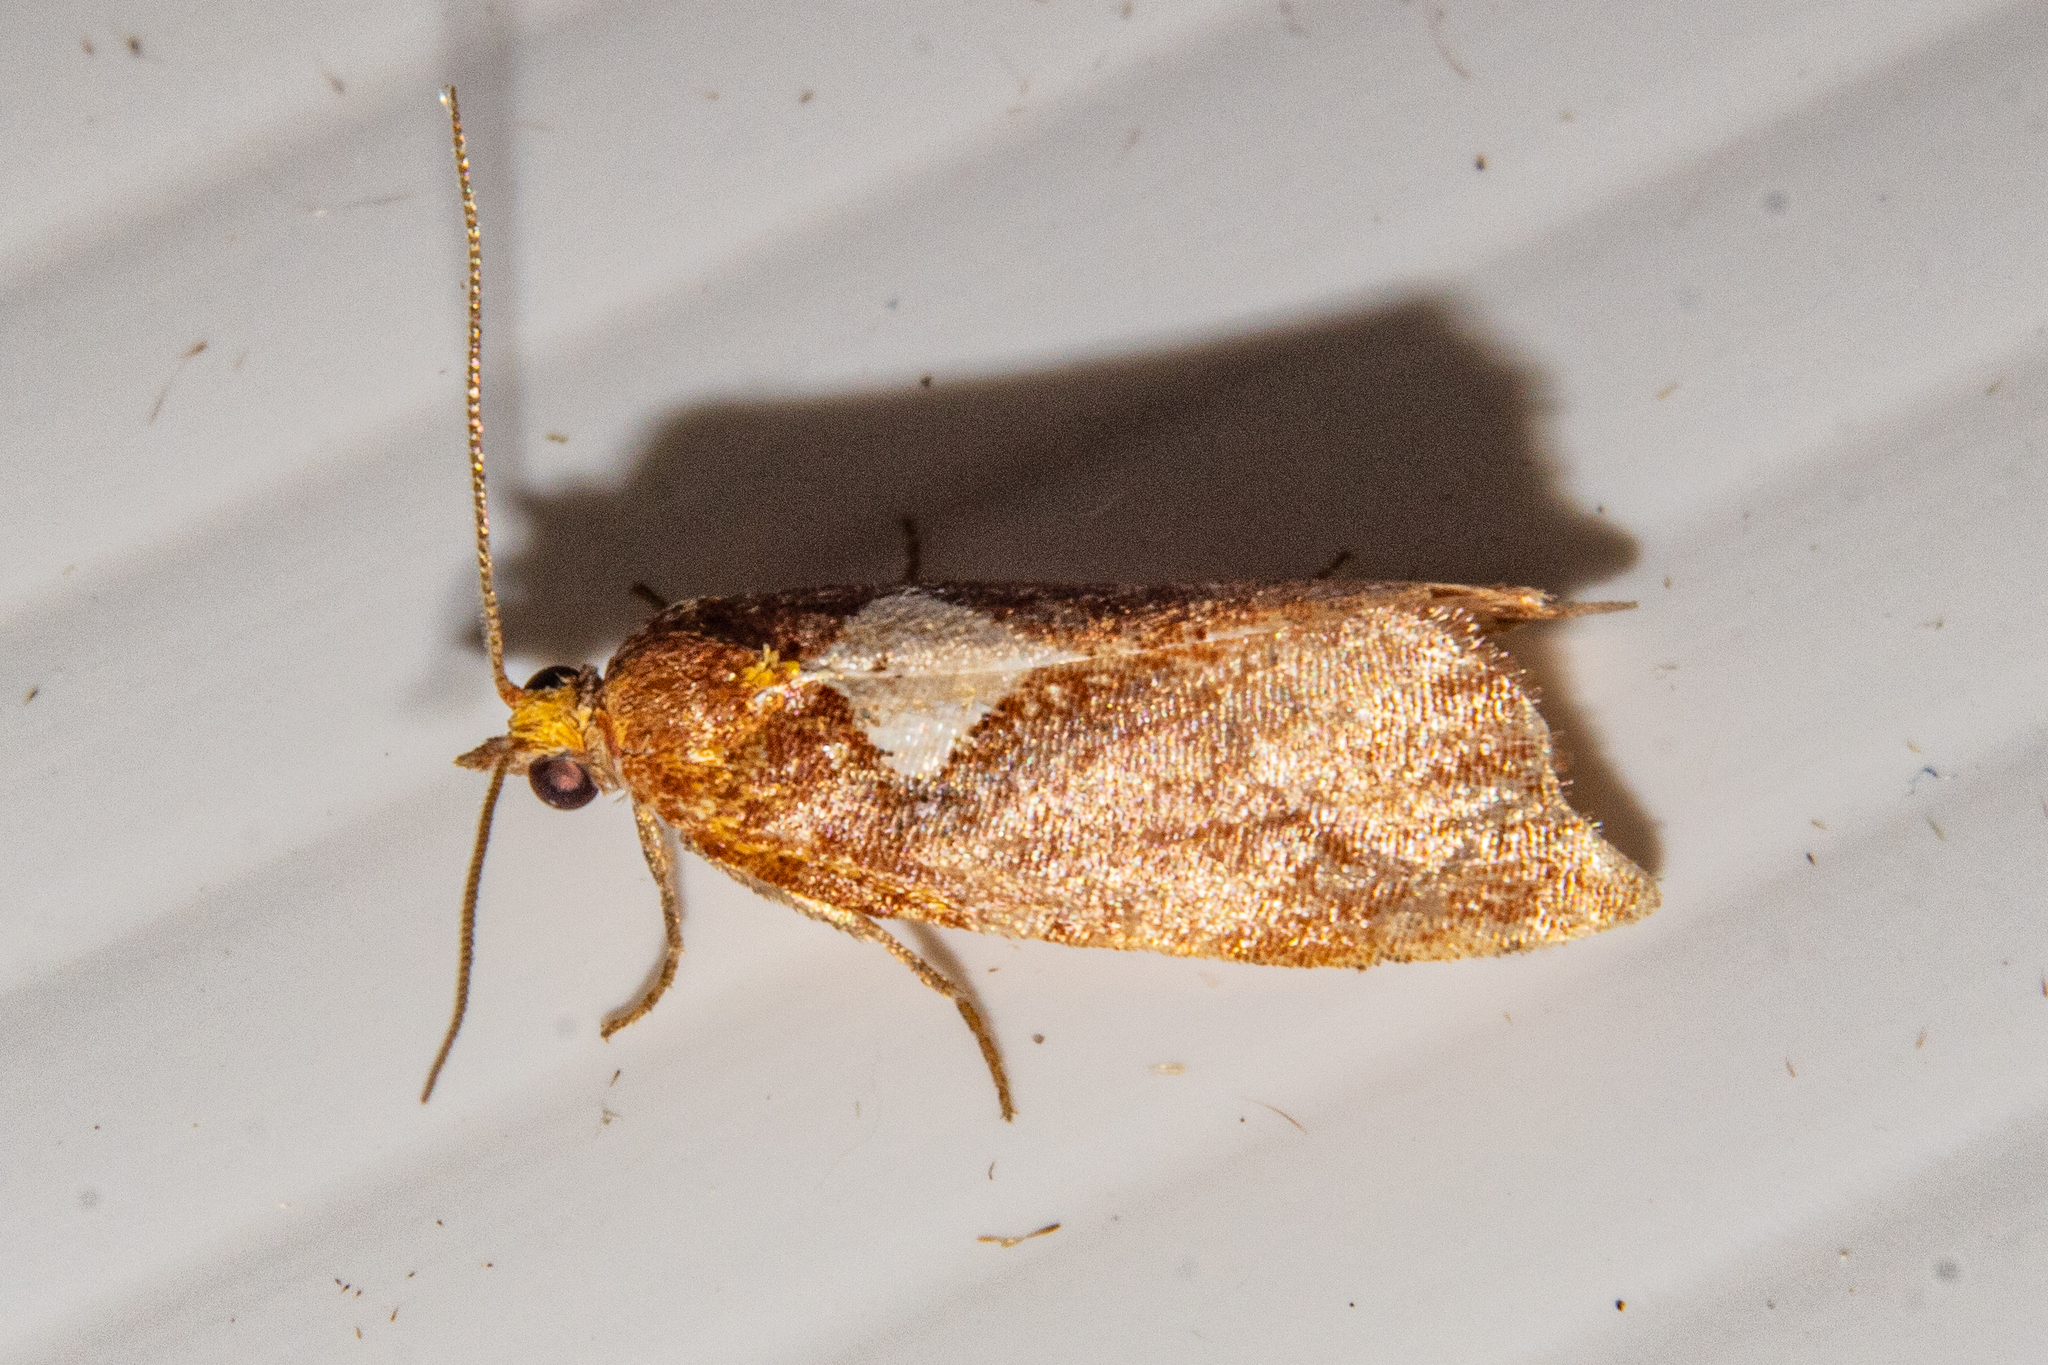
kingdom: Animalia
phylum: Arthropoda
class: Insecta
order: Lepidoptera
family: Tortricidae
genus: Pyrgotis
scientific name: Pyrgotis pyramidias
